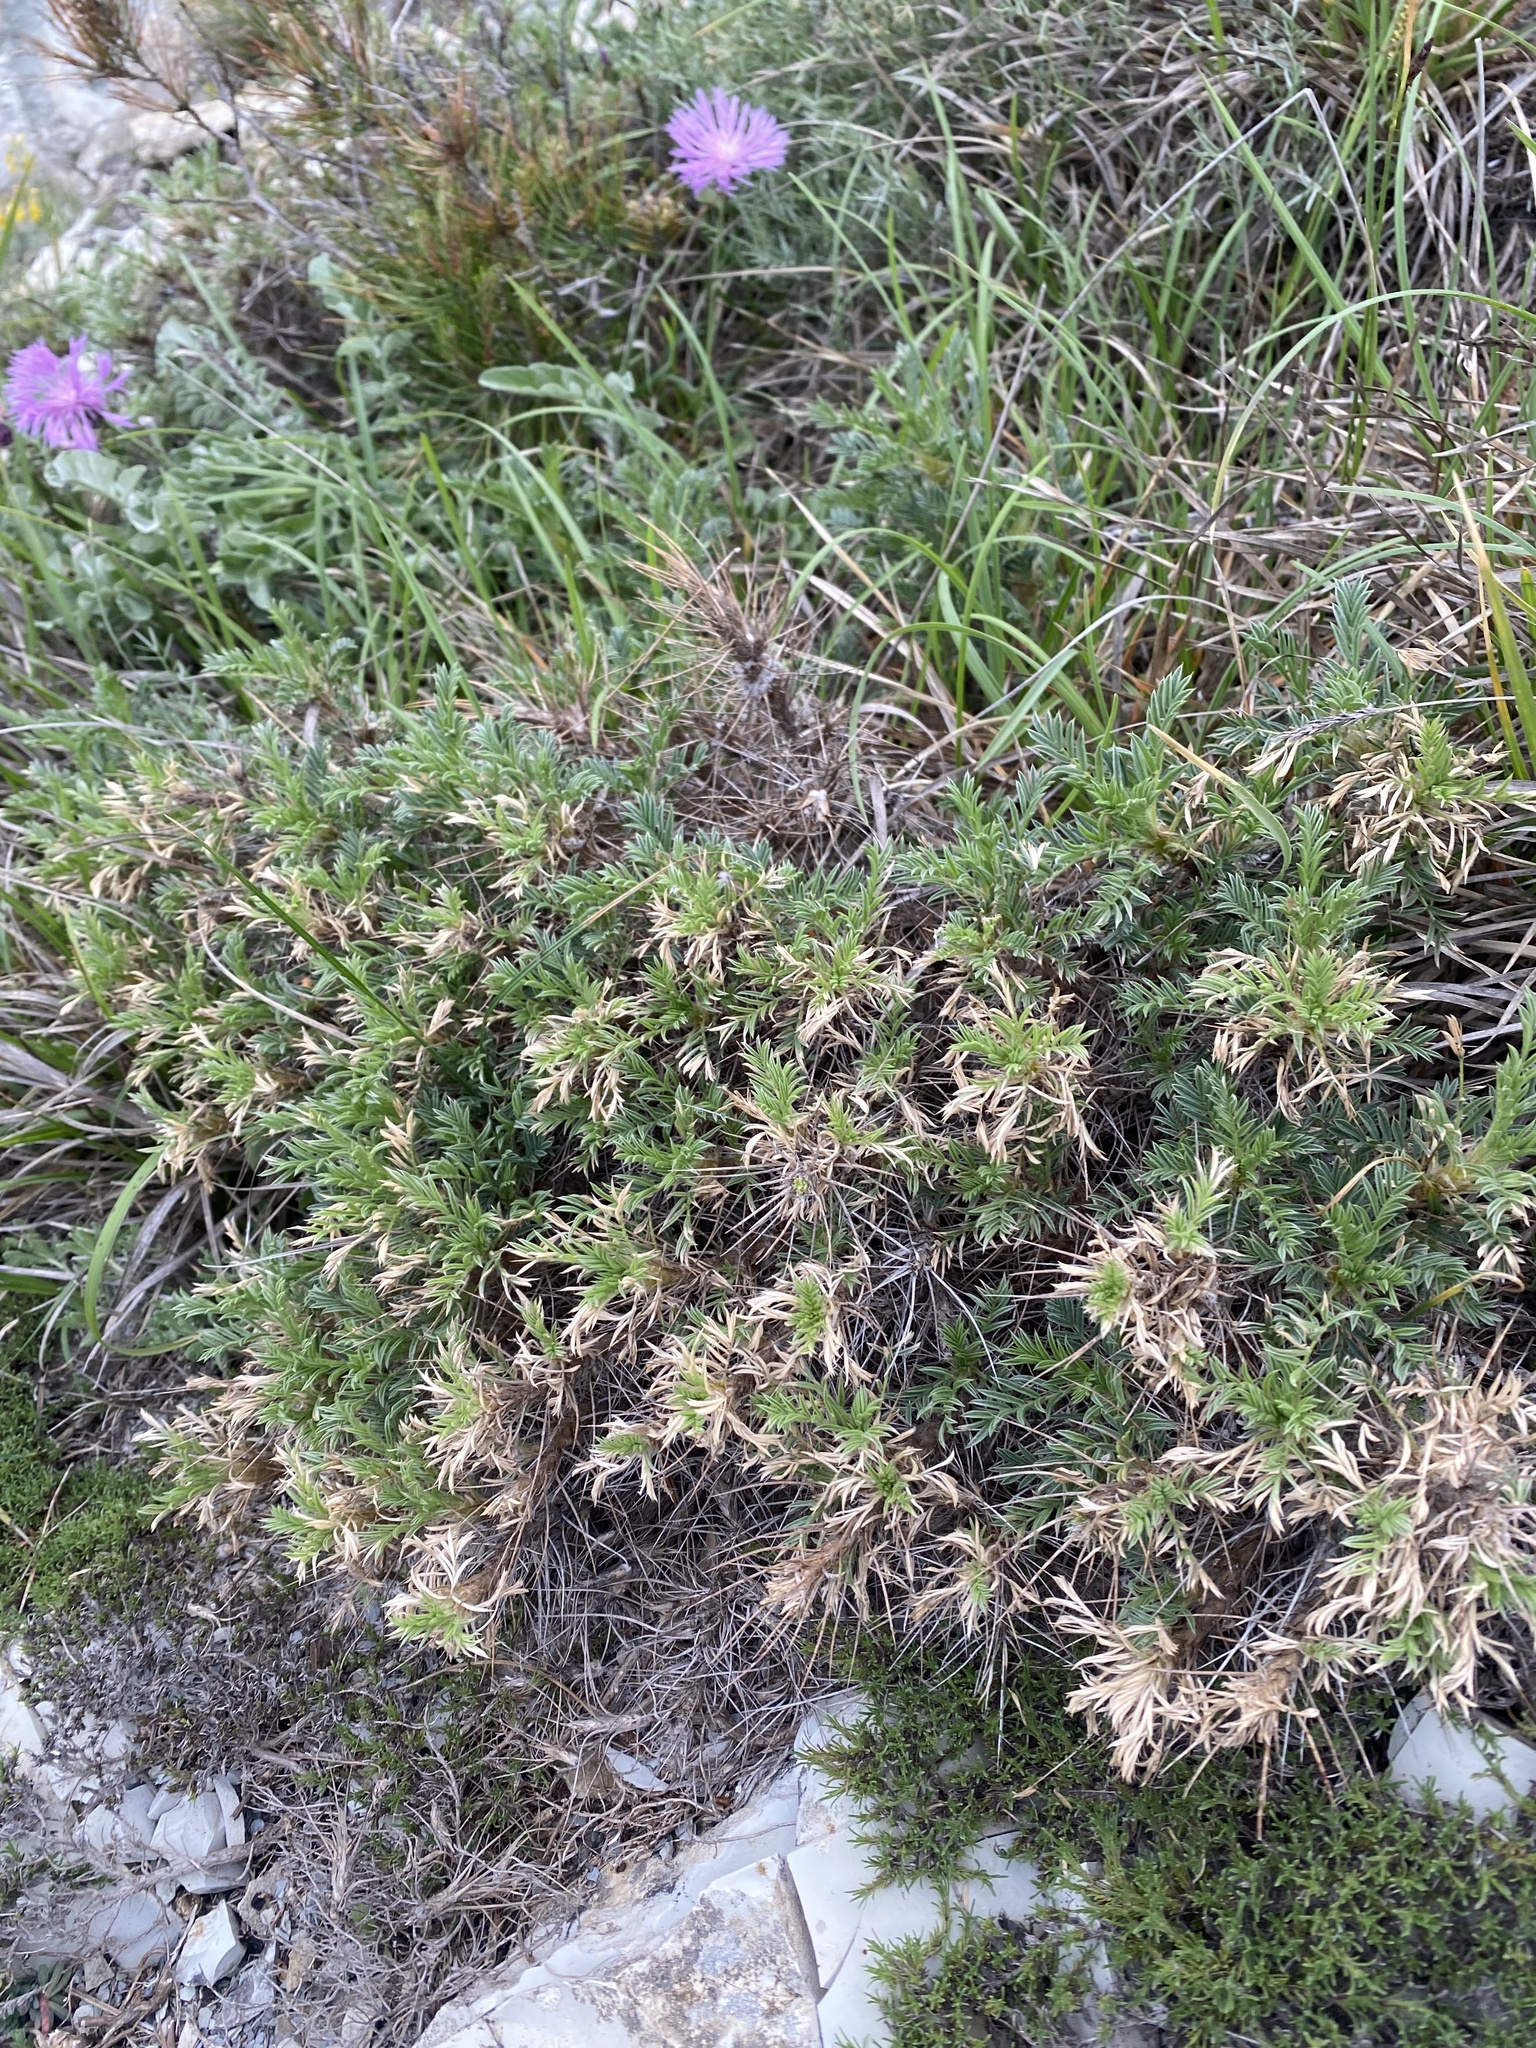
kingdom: Plantae
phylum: Tracheophyta
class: Magnoliopsida
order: Fabales
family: Fabaceae
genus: Astragalus
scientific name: Astragalus arnacanthoides
